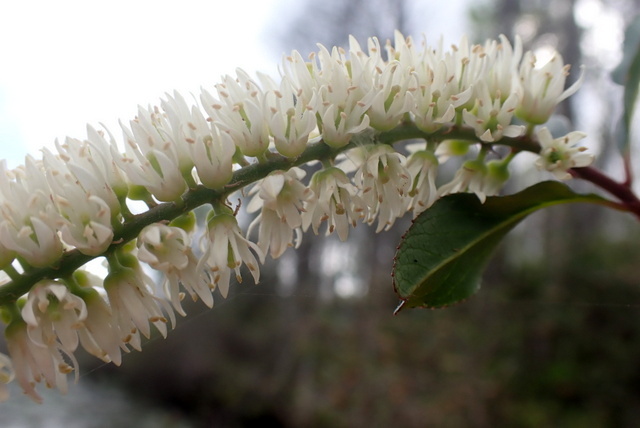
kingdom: Plantae
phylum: Tracheophyta
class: Magnoliopsida
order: Saxifragales
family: Iteaceae
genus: Itea
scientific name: Itea virginica
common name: Sweetspire
